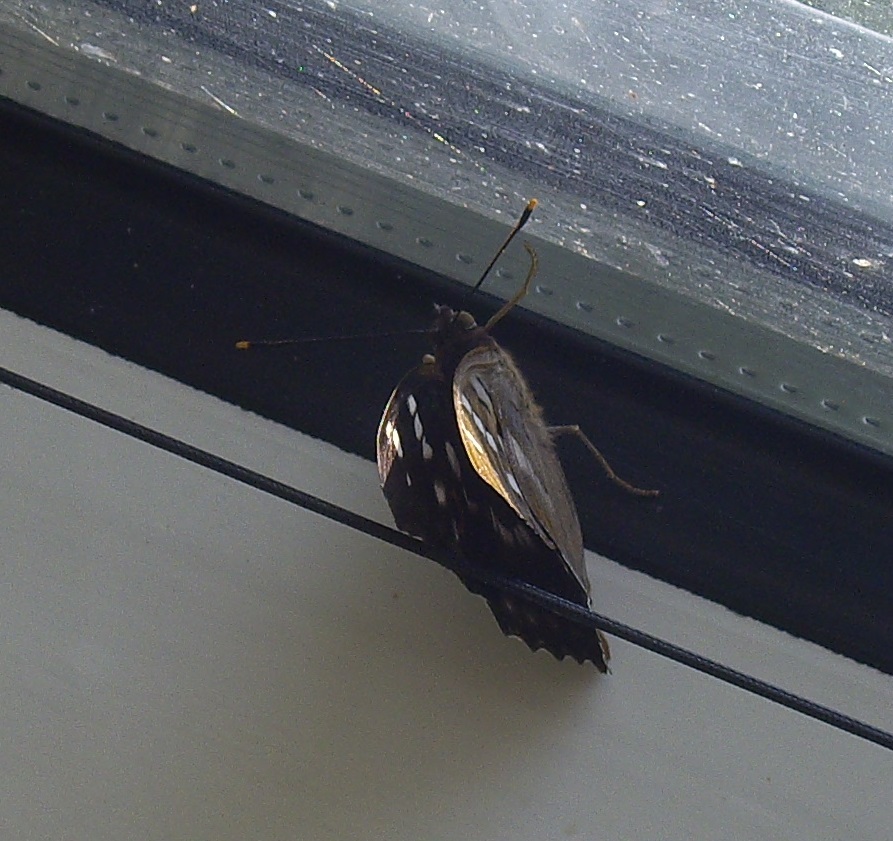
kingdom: Animalia
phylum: Arthropoda
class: Insecta
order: Lepidoptera
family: Nymphalidae
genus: Apatura
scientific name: Apatura ilia
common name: Lesser purple emperor
